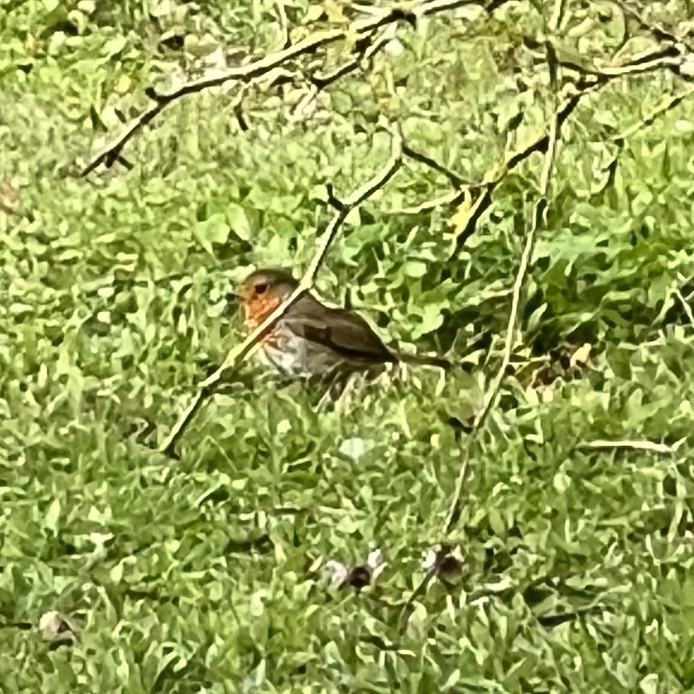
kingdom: Animalia
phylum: Chordata
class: Aves
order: Passeriformes
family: Muscicapidae
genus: Erithacus
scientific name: Erithacus rubecula
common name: European robin
